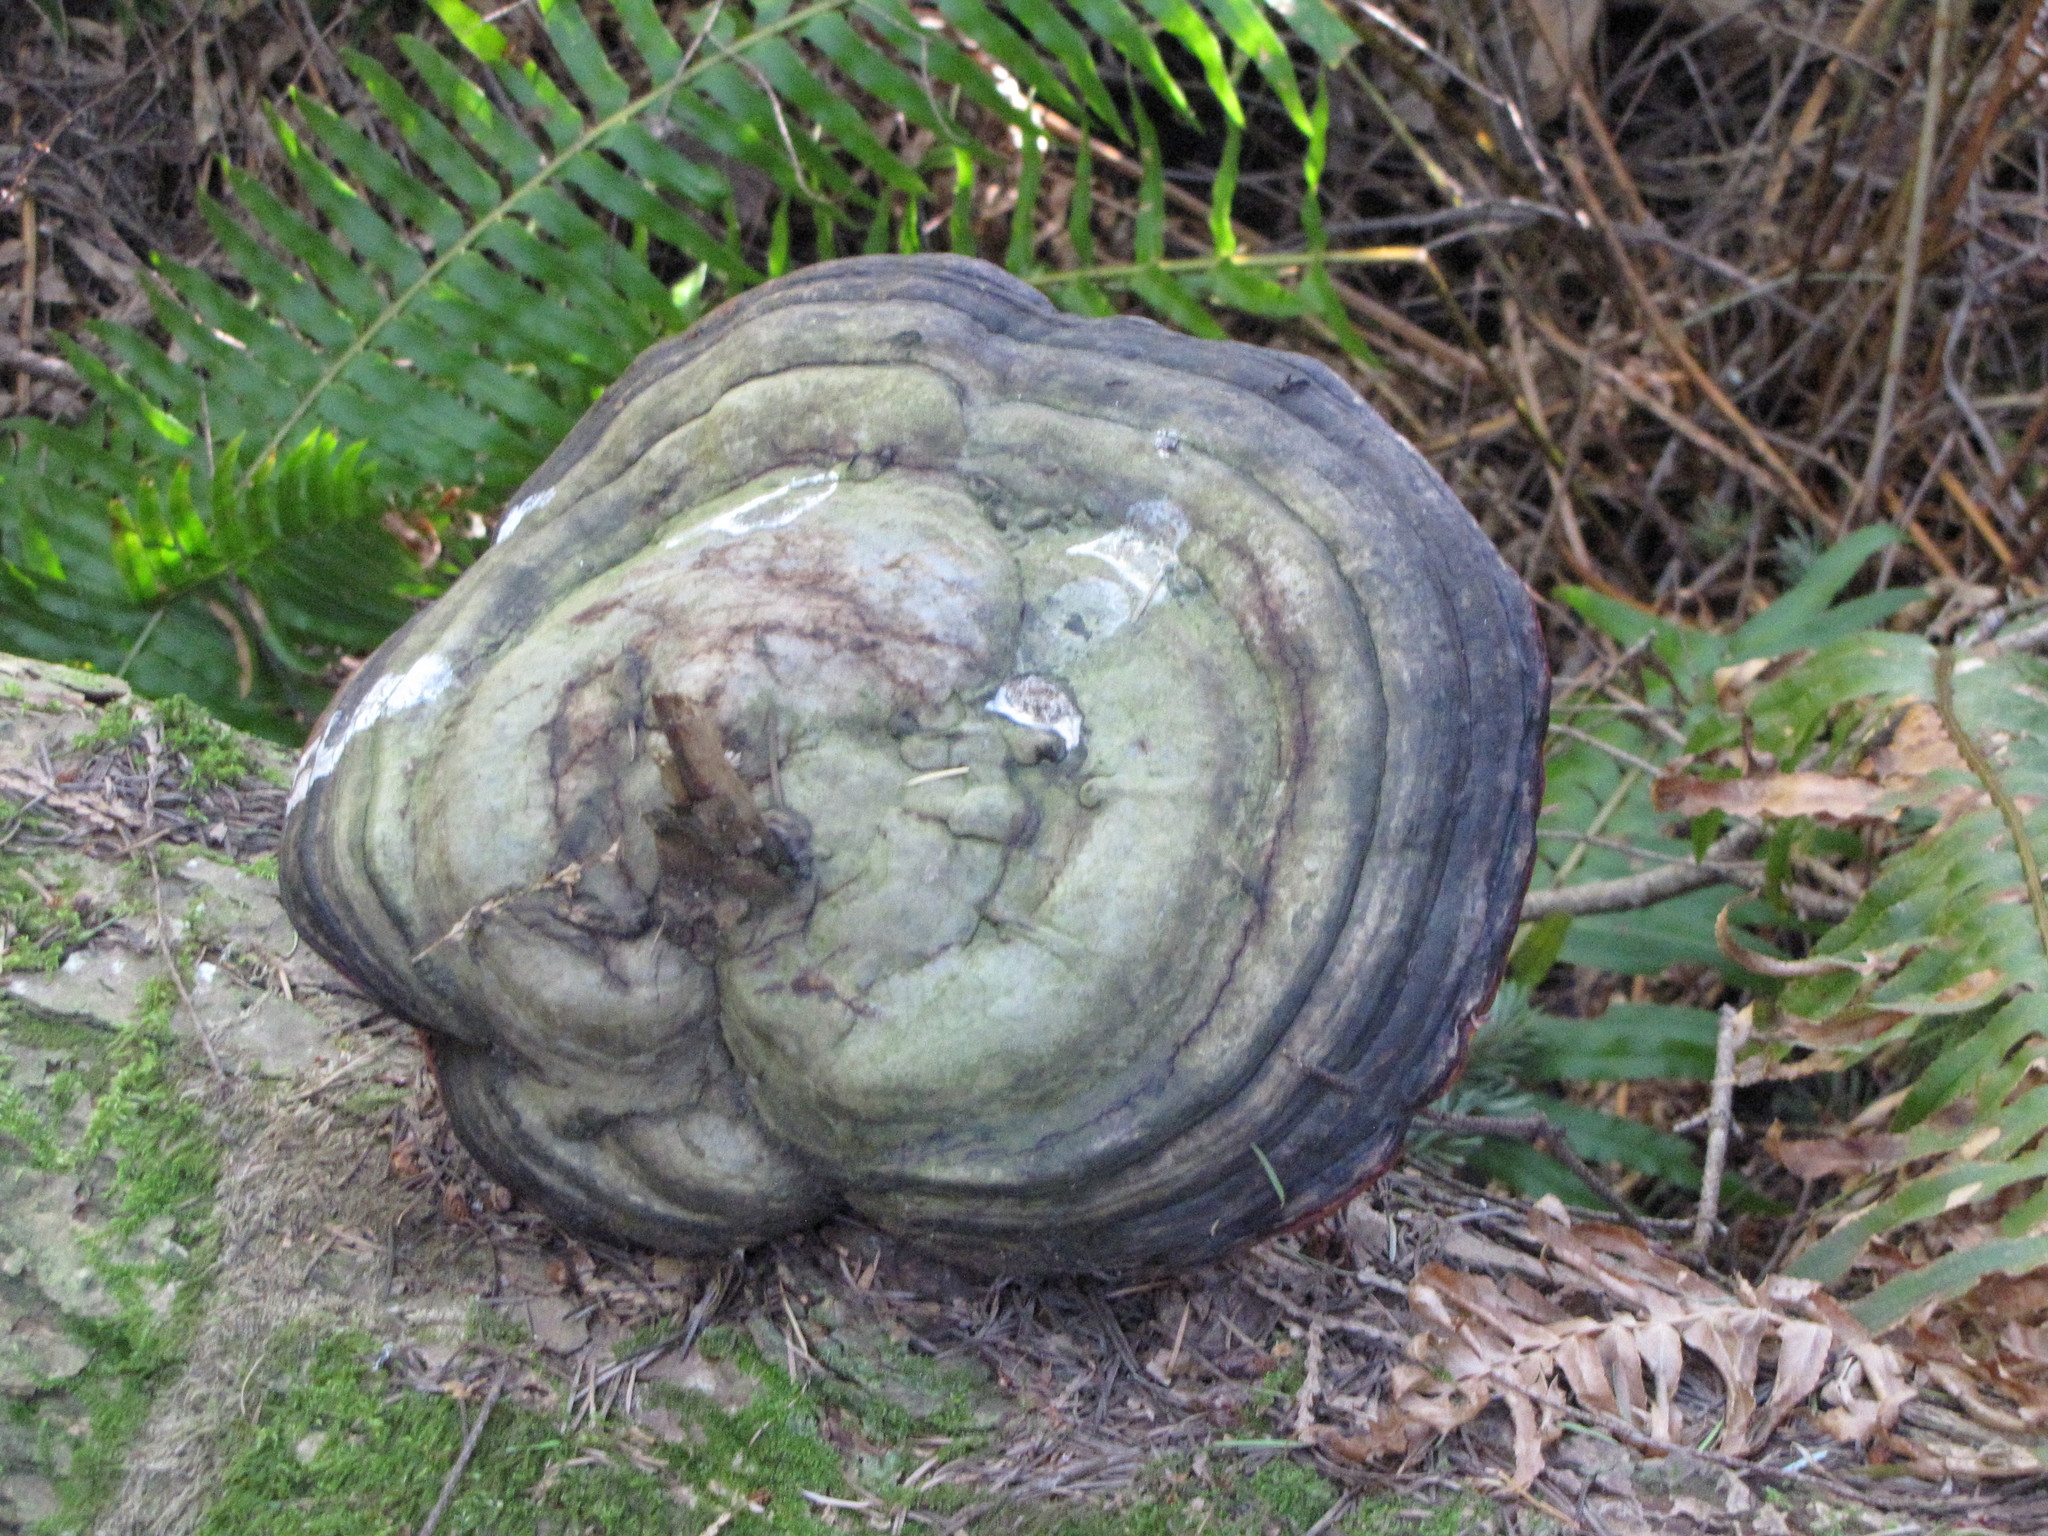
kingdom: Fungi
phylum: Basidiomycota
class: Agaricomycetes
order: Polyporales
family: Fomitopsidaceae
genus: Fomitopsis
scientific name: Fomitopsis mounceae
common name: Northern red belt
